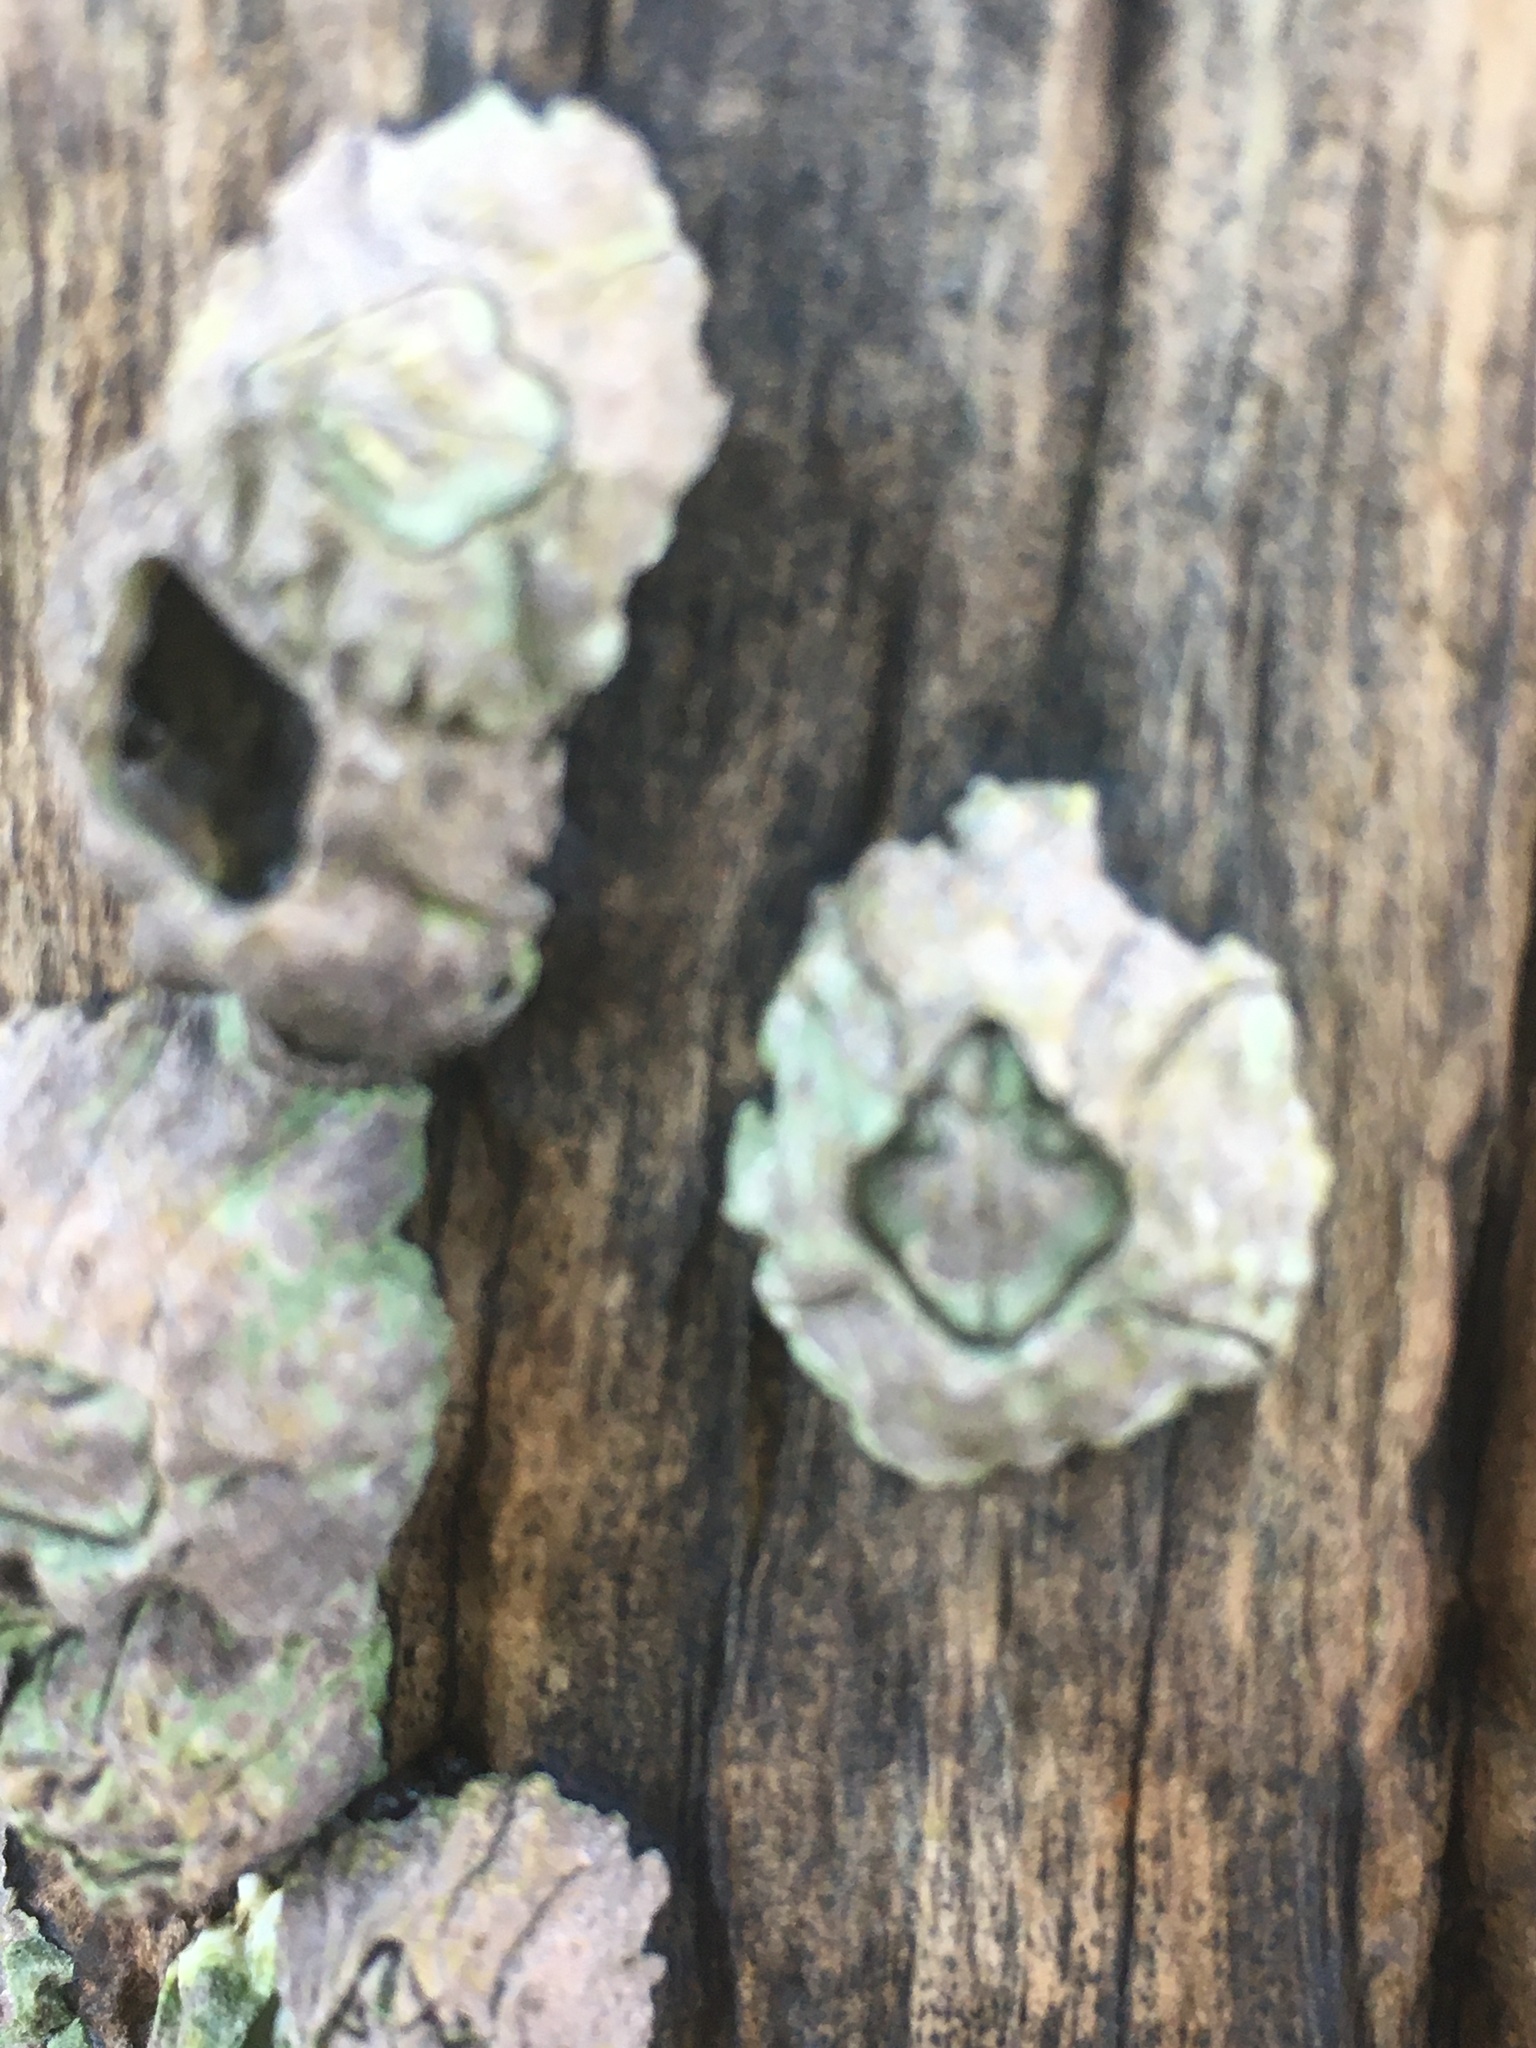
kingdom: Animalia
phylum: Arthropoda
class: Maxillopoda
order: Sessilia
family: Balanidae
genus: Balanus
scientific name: Balanus glandula
